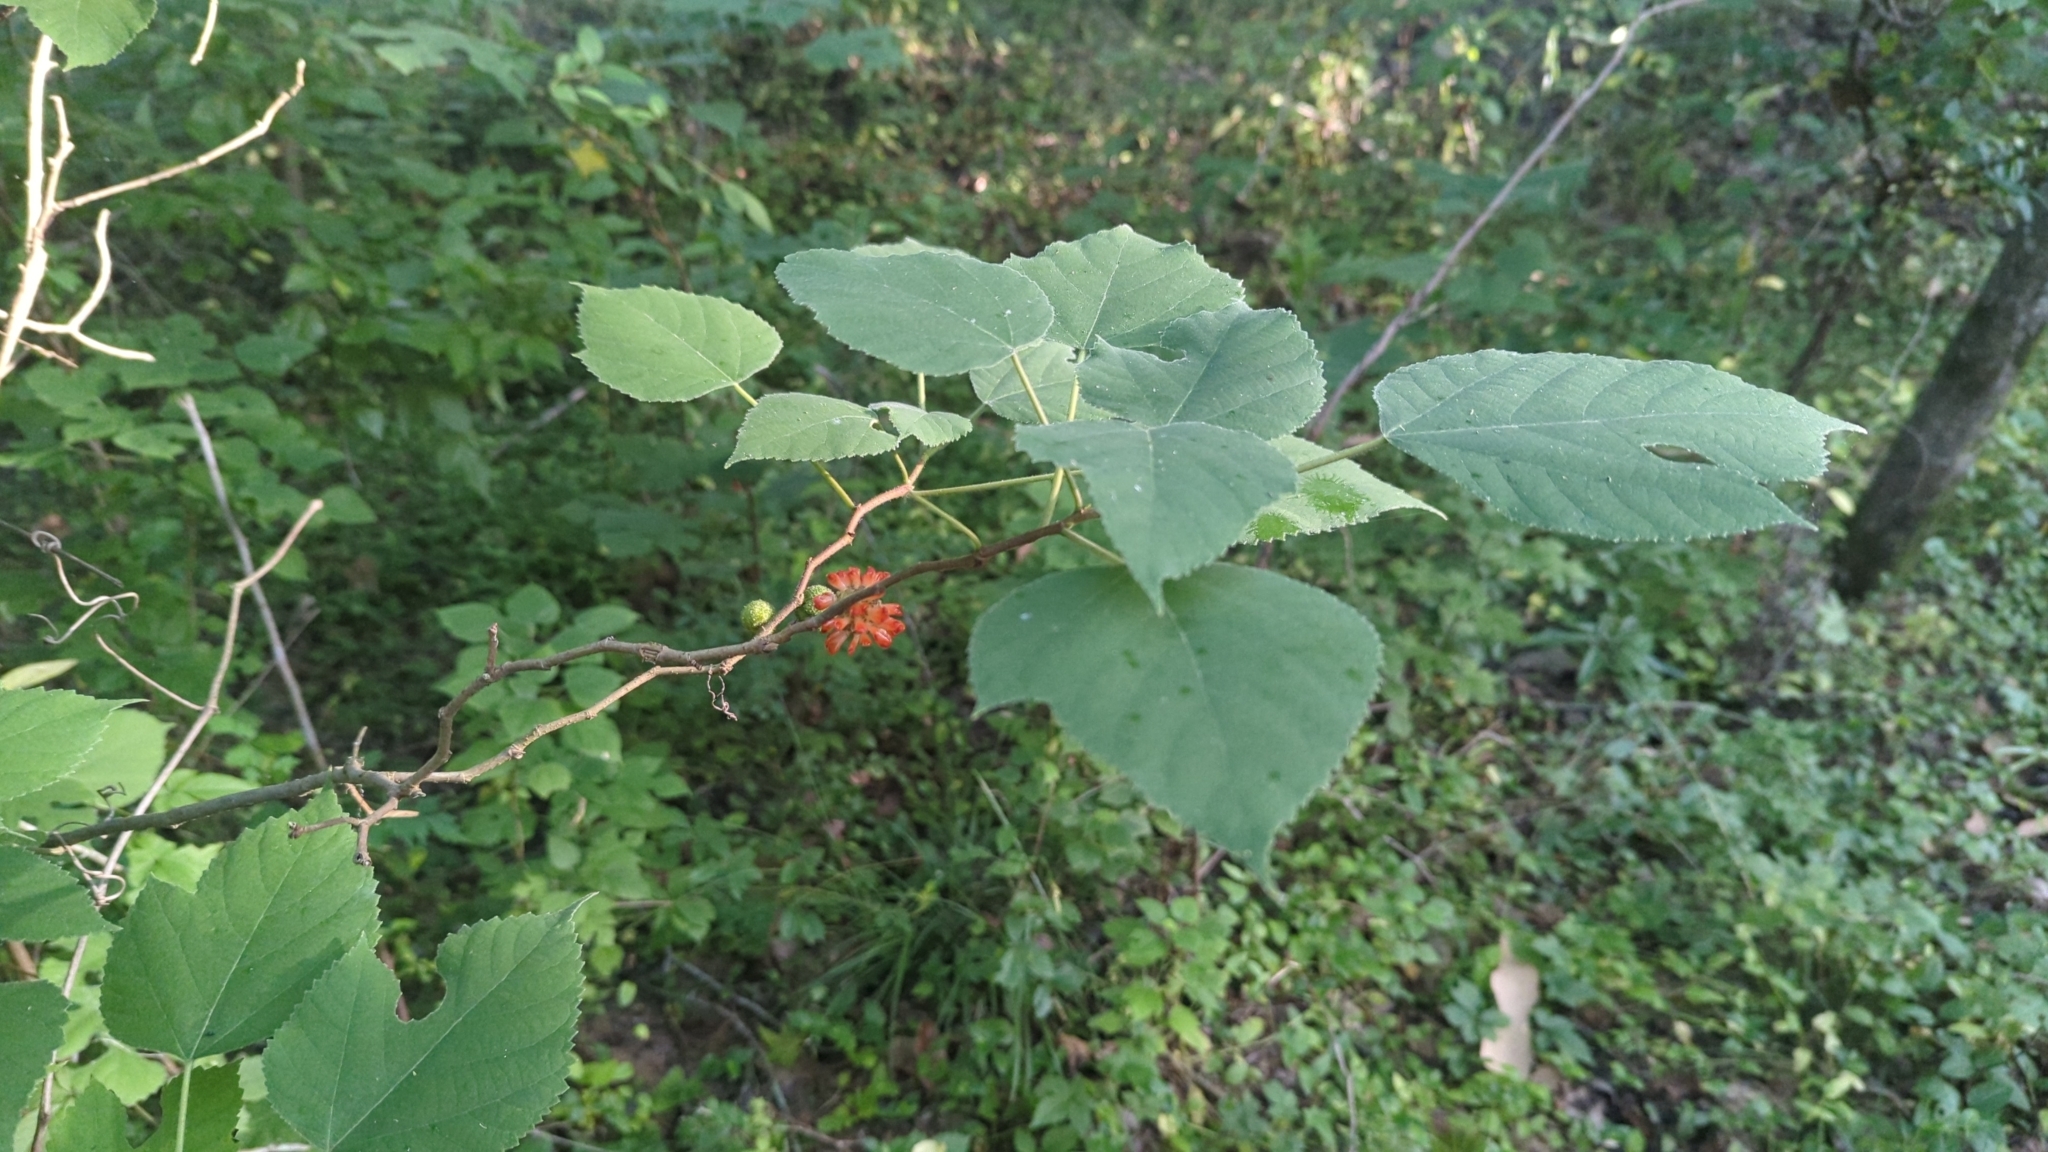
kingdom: Plantae
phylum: Tracheophyta
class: Magnoliopsida
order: Rosales
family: Moraceae
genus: Broussonetia
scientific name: Broussonetia papyrifera
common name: Paper mulberry
